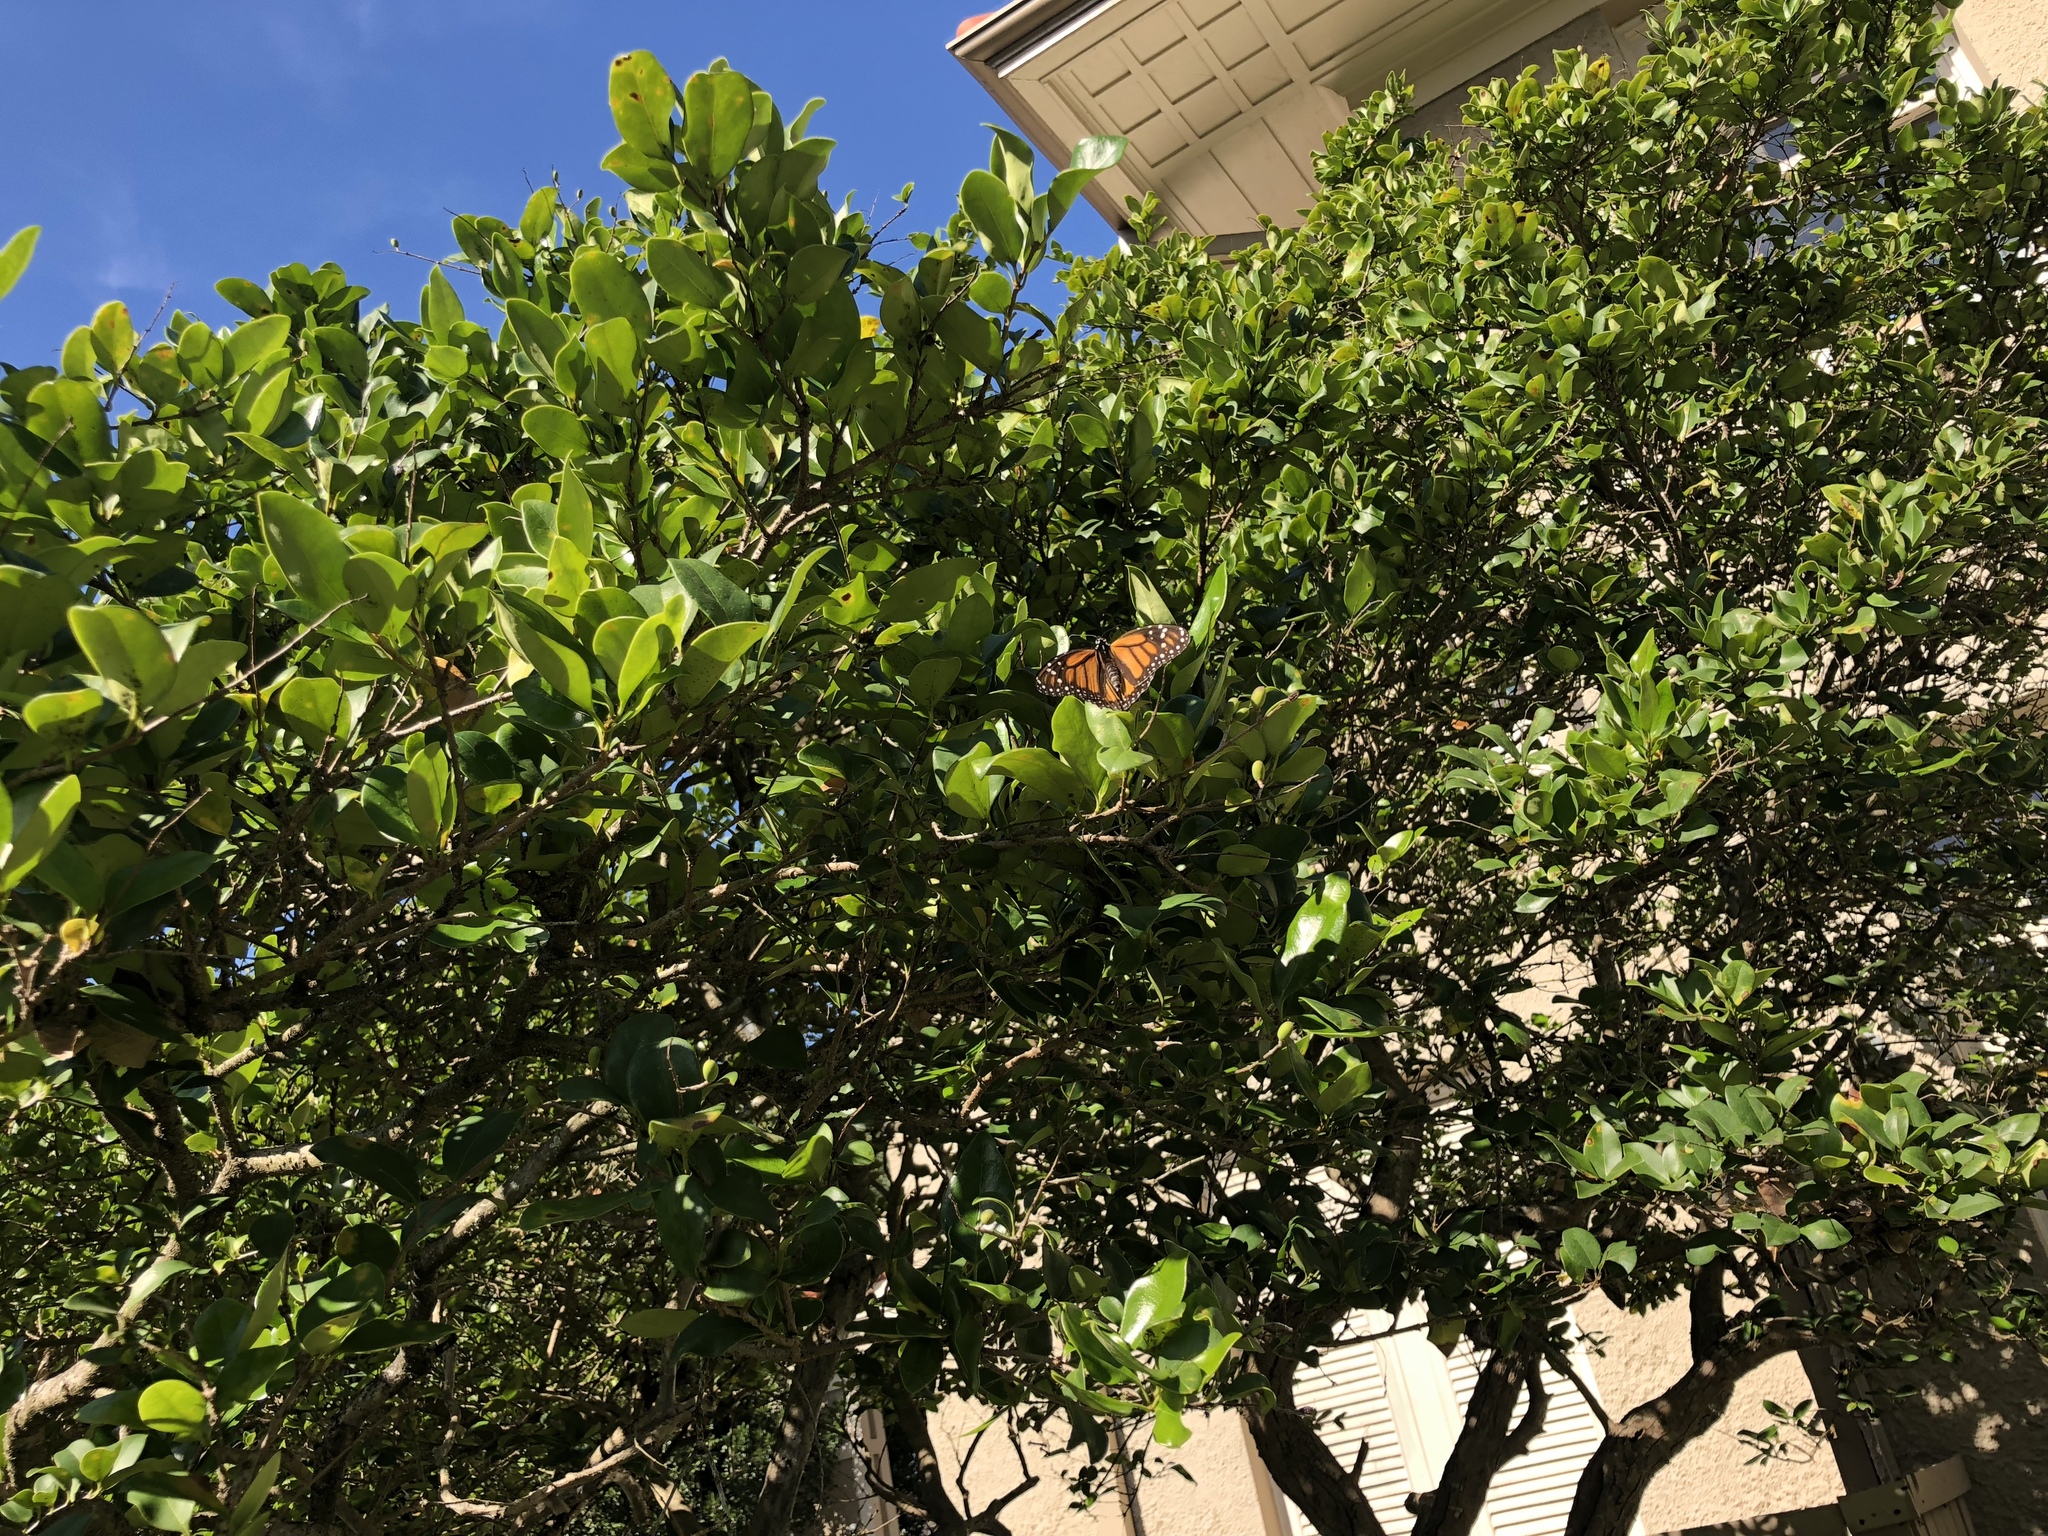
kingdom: Animalia
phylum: Arthropoda
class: Insecta
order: Lepidoptera
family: Nymphalidae
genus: Danaus
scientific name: Danaus plexippus
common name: Monarch
